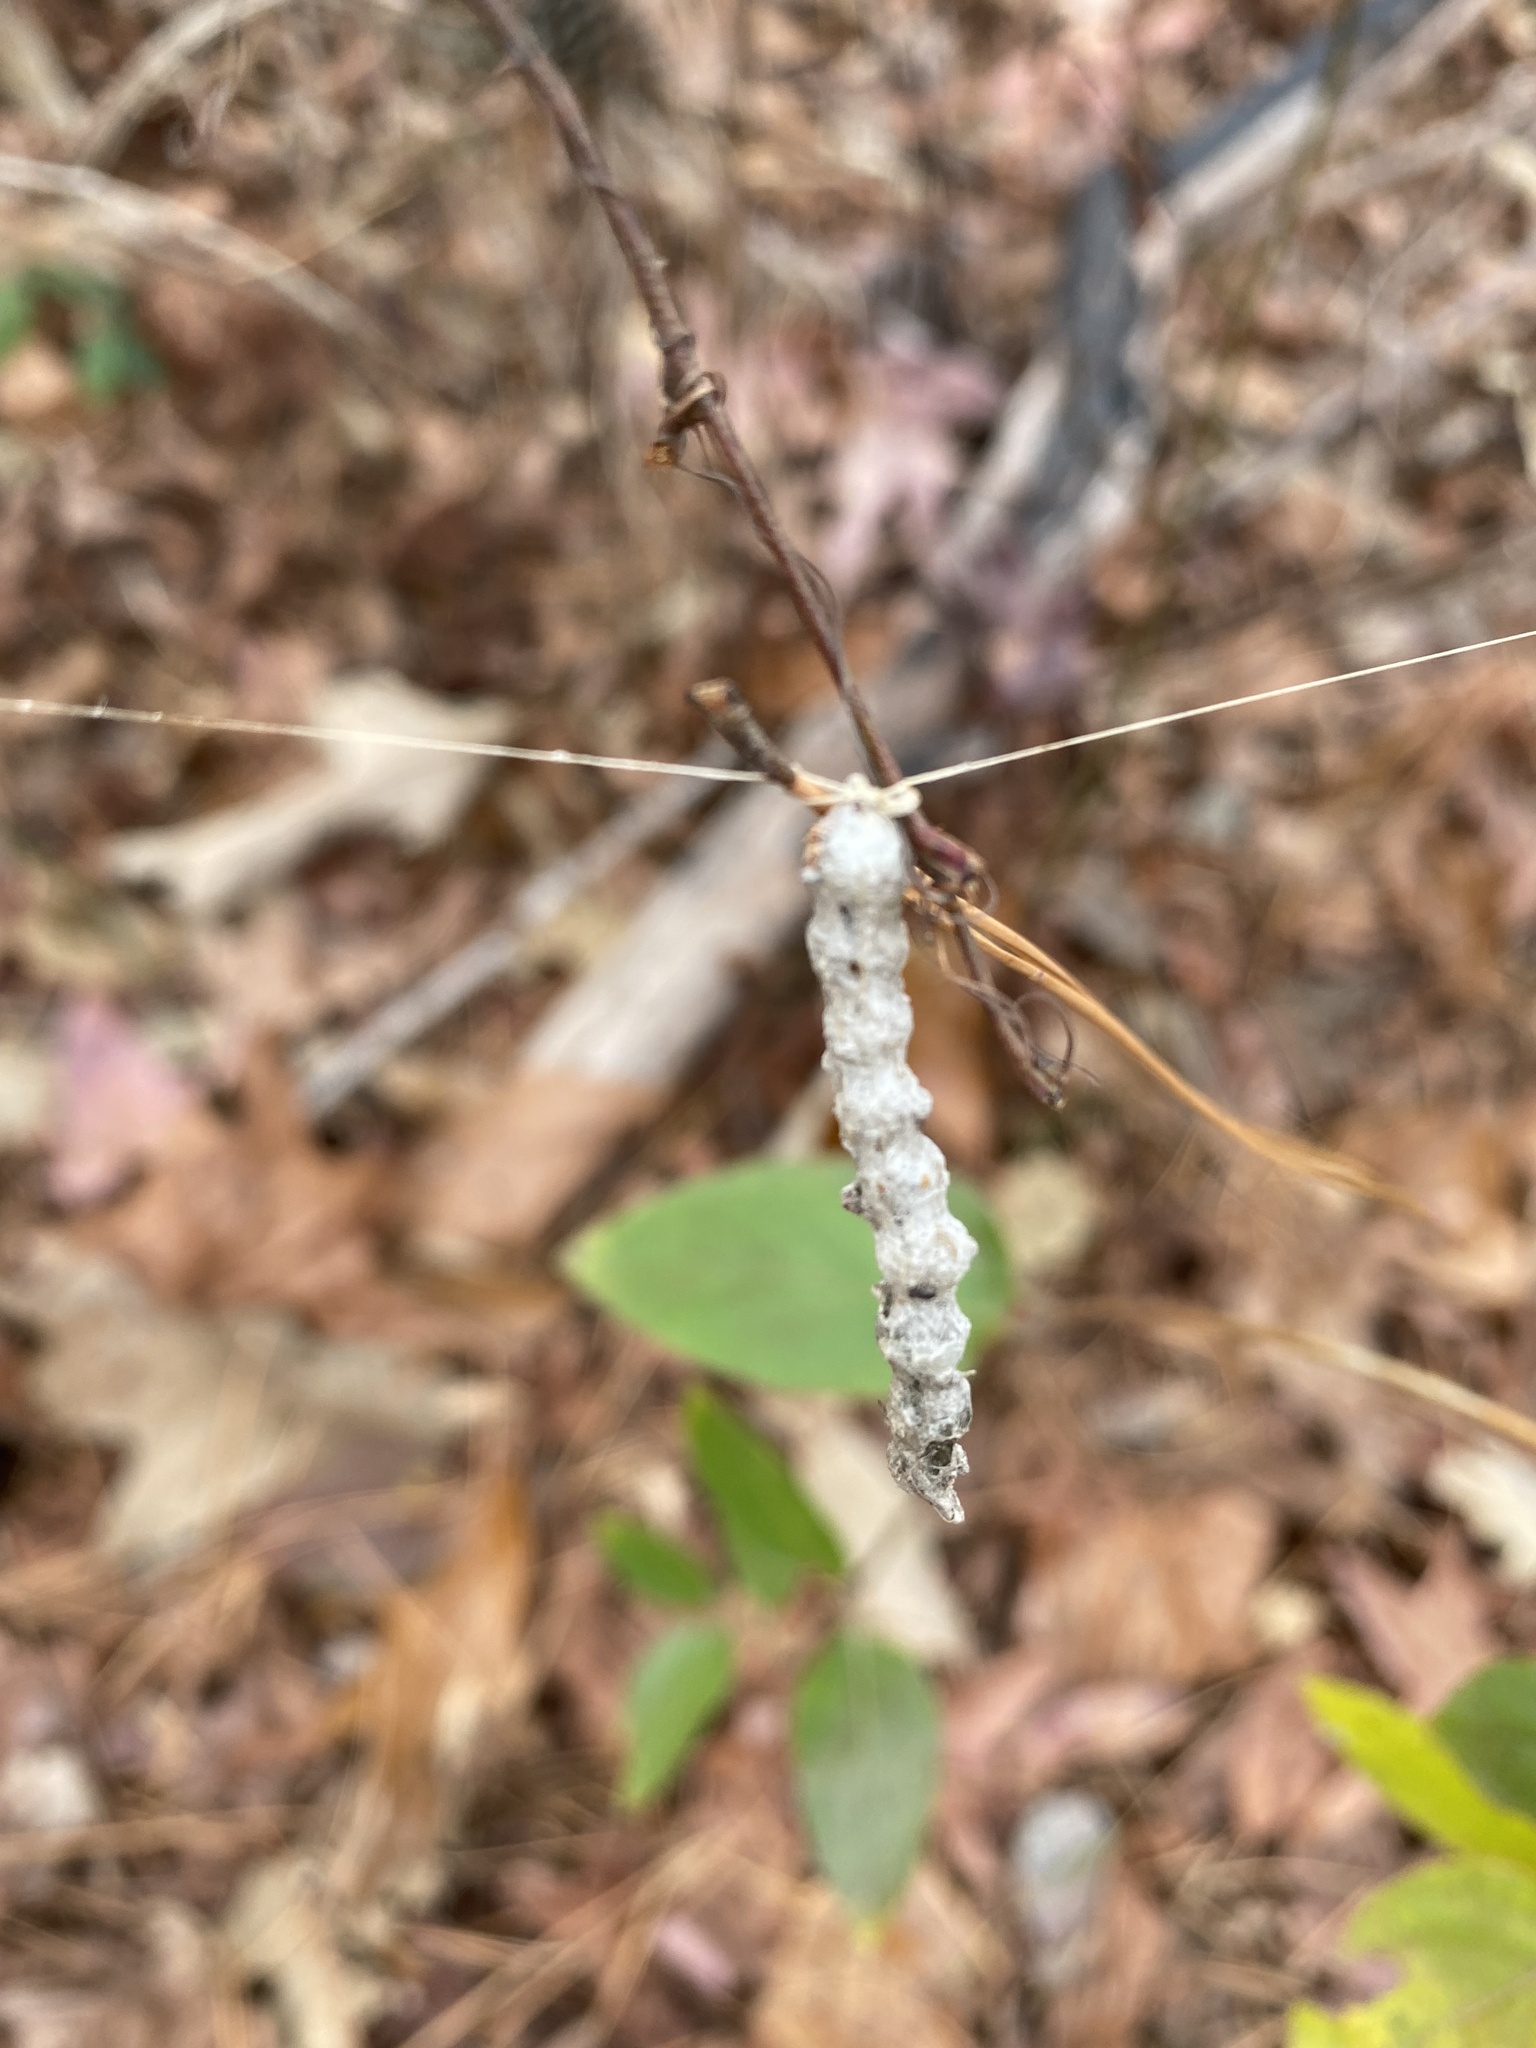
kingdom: Animalia
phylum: Arthropoda
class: Arachnida
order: Araneae
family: Araneidae
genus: Mecynogea
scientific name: Mecynogea lemniscata
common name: Orb weavers
